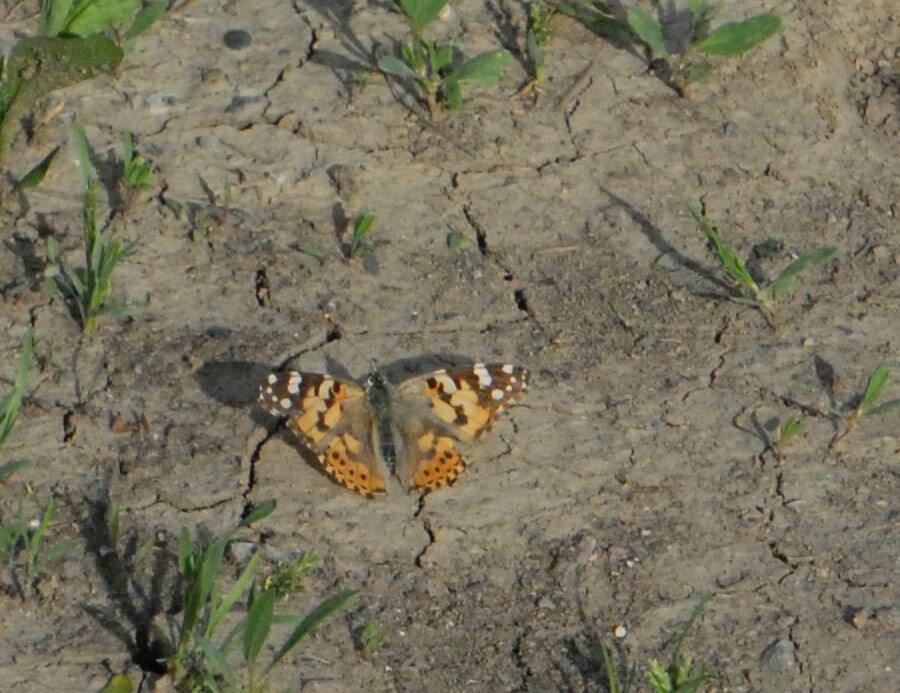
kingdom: Animalia
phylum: Arthropoda
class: Insecta
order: Lepidoptera
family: Nymphalidae
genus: Vanessa
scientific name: Vanessa cardui
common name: Painted lady
